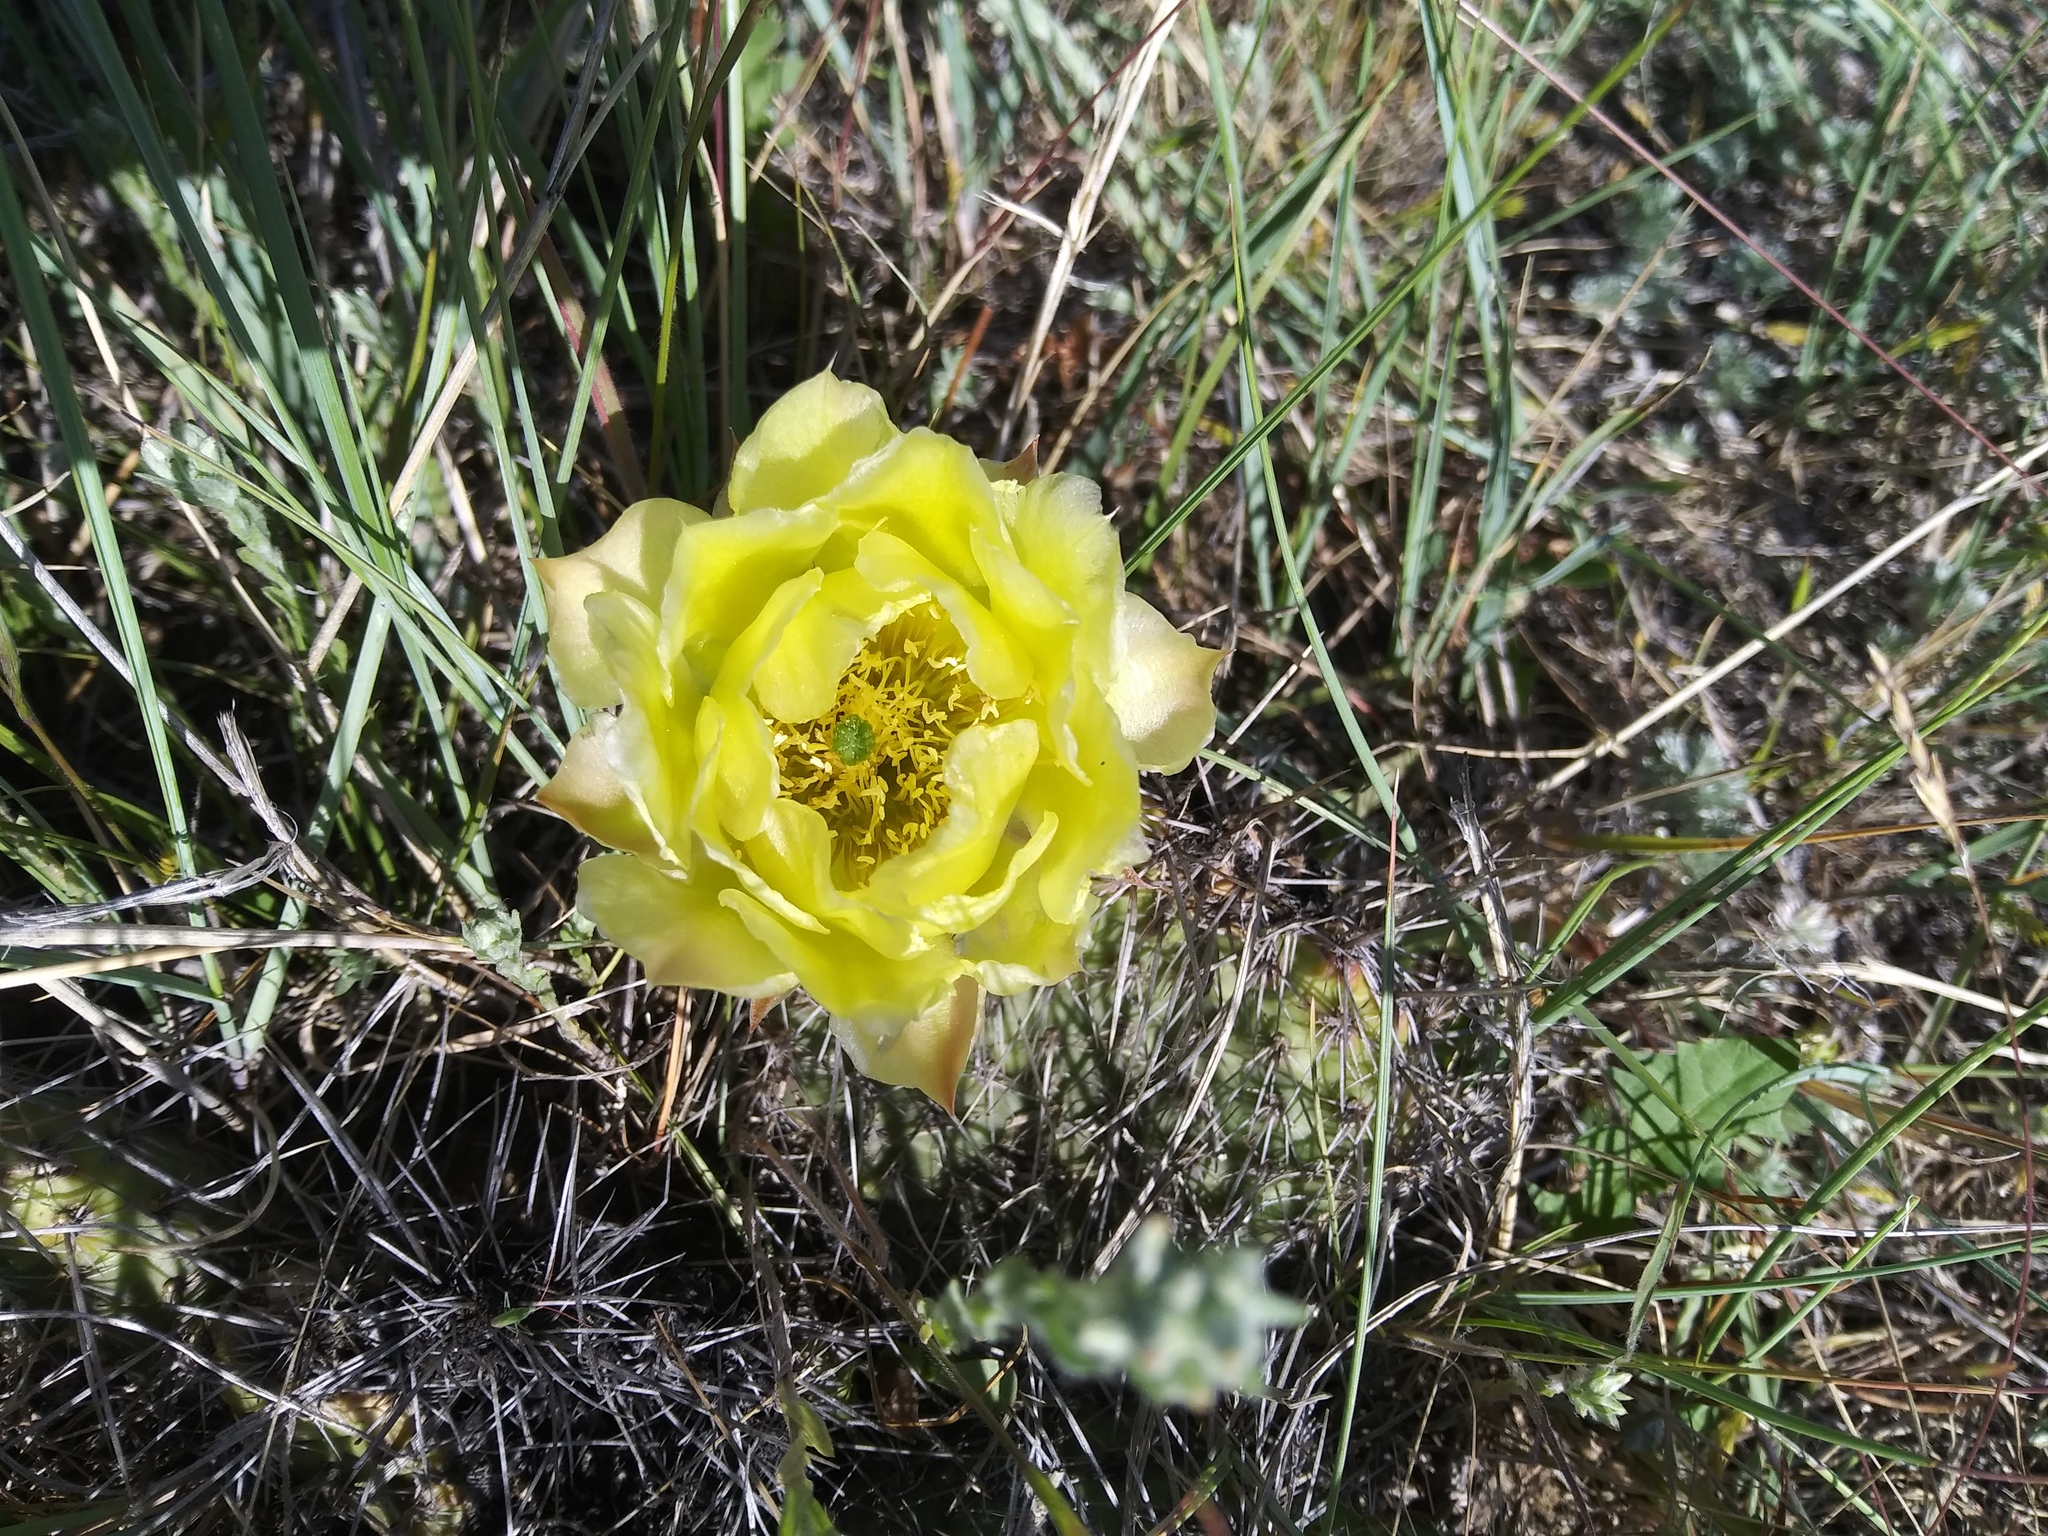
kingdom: Plantae
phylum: Tracheophyta
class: Magnoliopsida
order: Caryophyllales
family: Cactaceae
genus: Opuntia
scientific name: Opuntia polyacantha
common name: Plains prickly-pear
